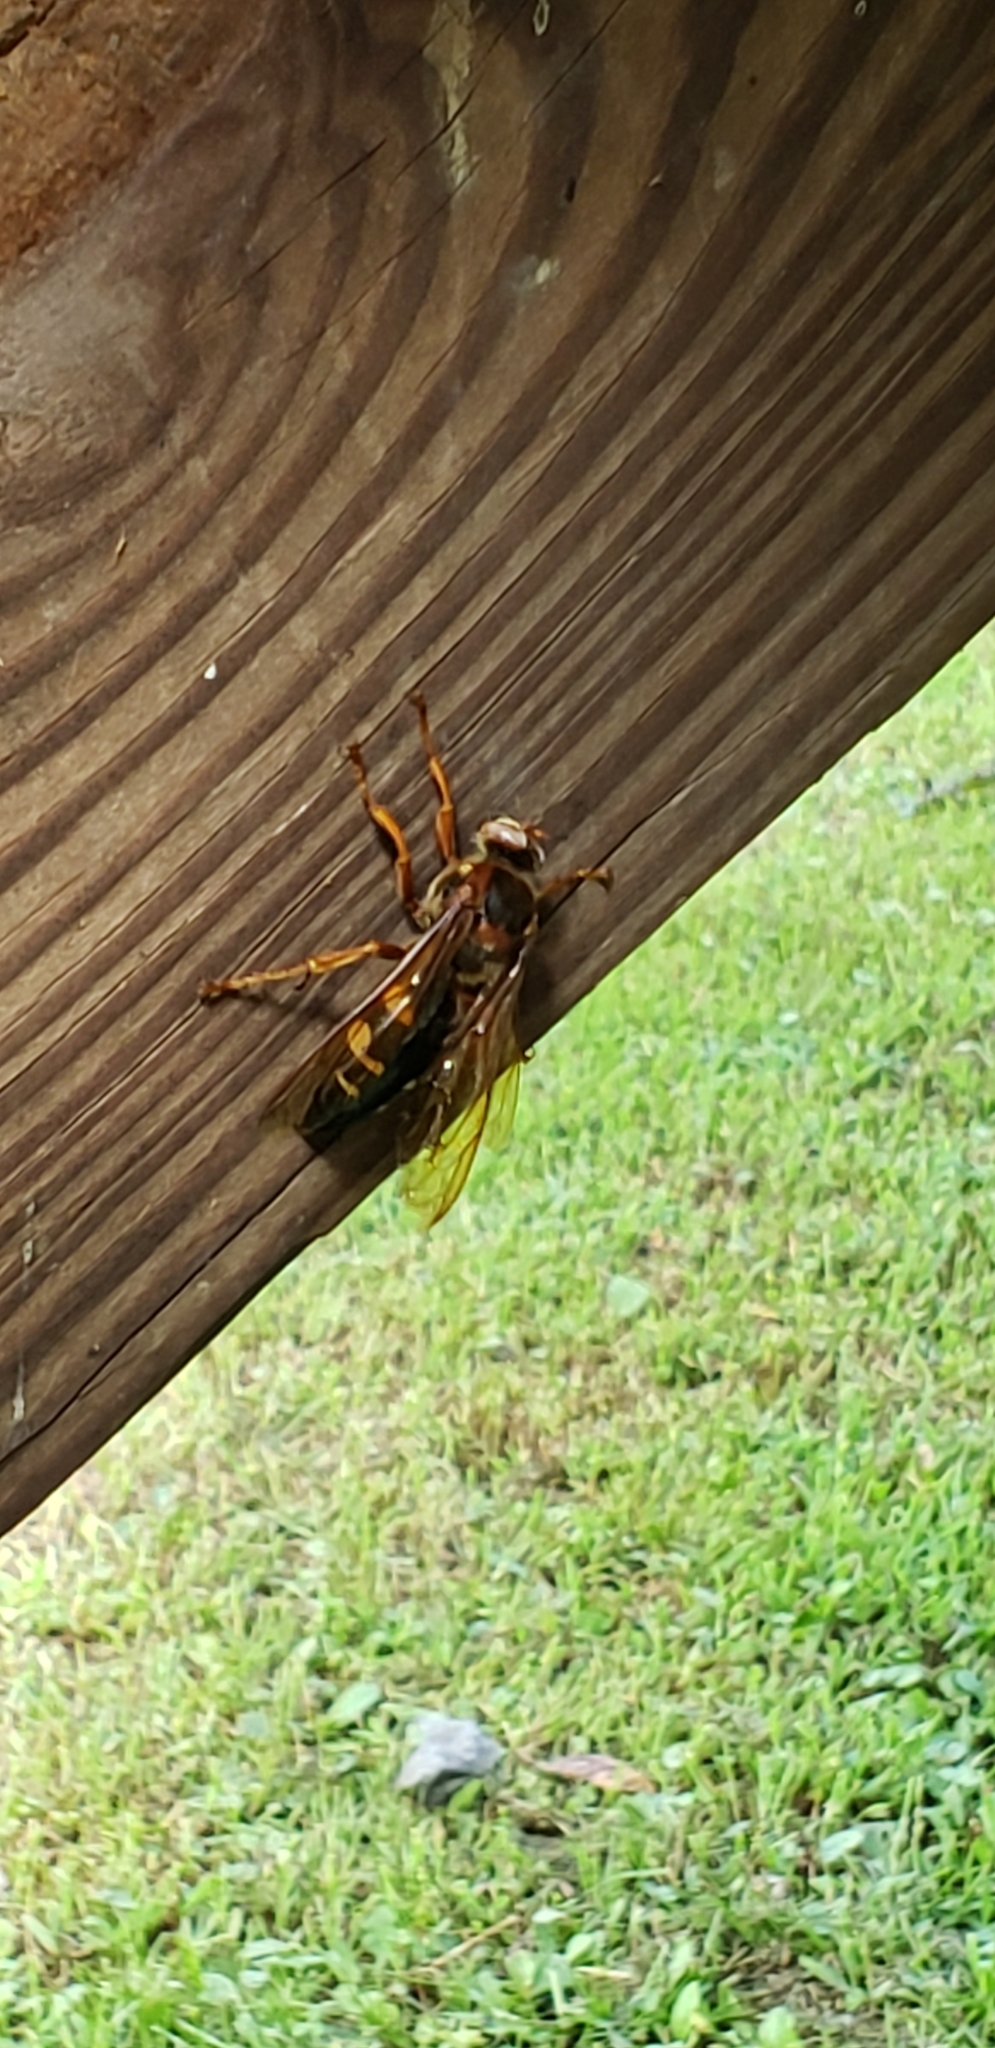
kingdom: Animalia
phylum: Arthropoda
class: Insecta
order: Hymenoptera
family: Crabronidae
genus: Sphecius
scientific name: Sphecius speciosus
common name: Cicada killer
